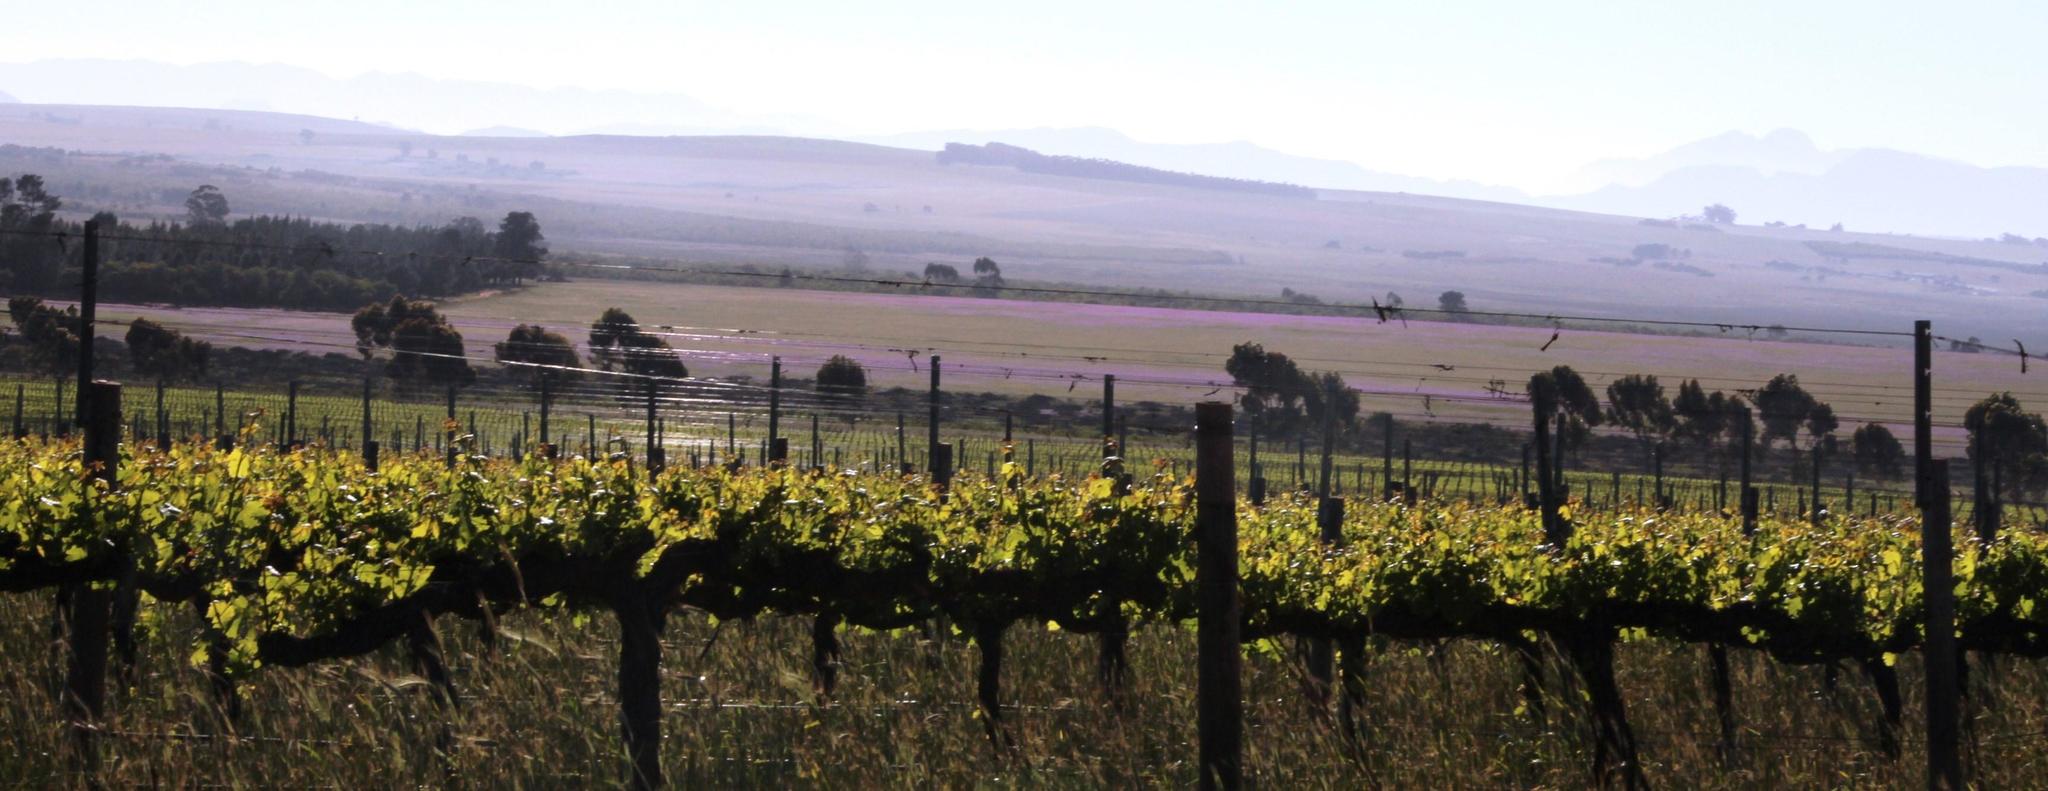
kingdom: Plantae
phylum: Tracheophyta
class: Magnoliopsida
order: Boraginales
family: Boraginaceae
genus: Echium
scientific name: Echium plantagineum
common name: Purple viper's-bugloss
